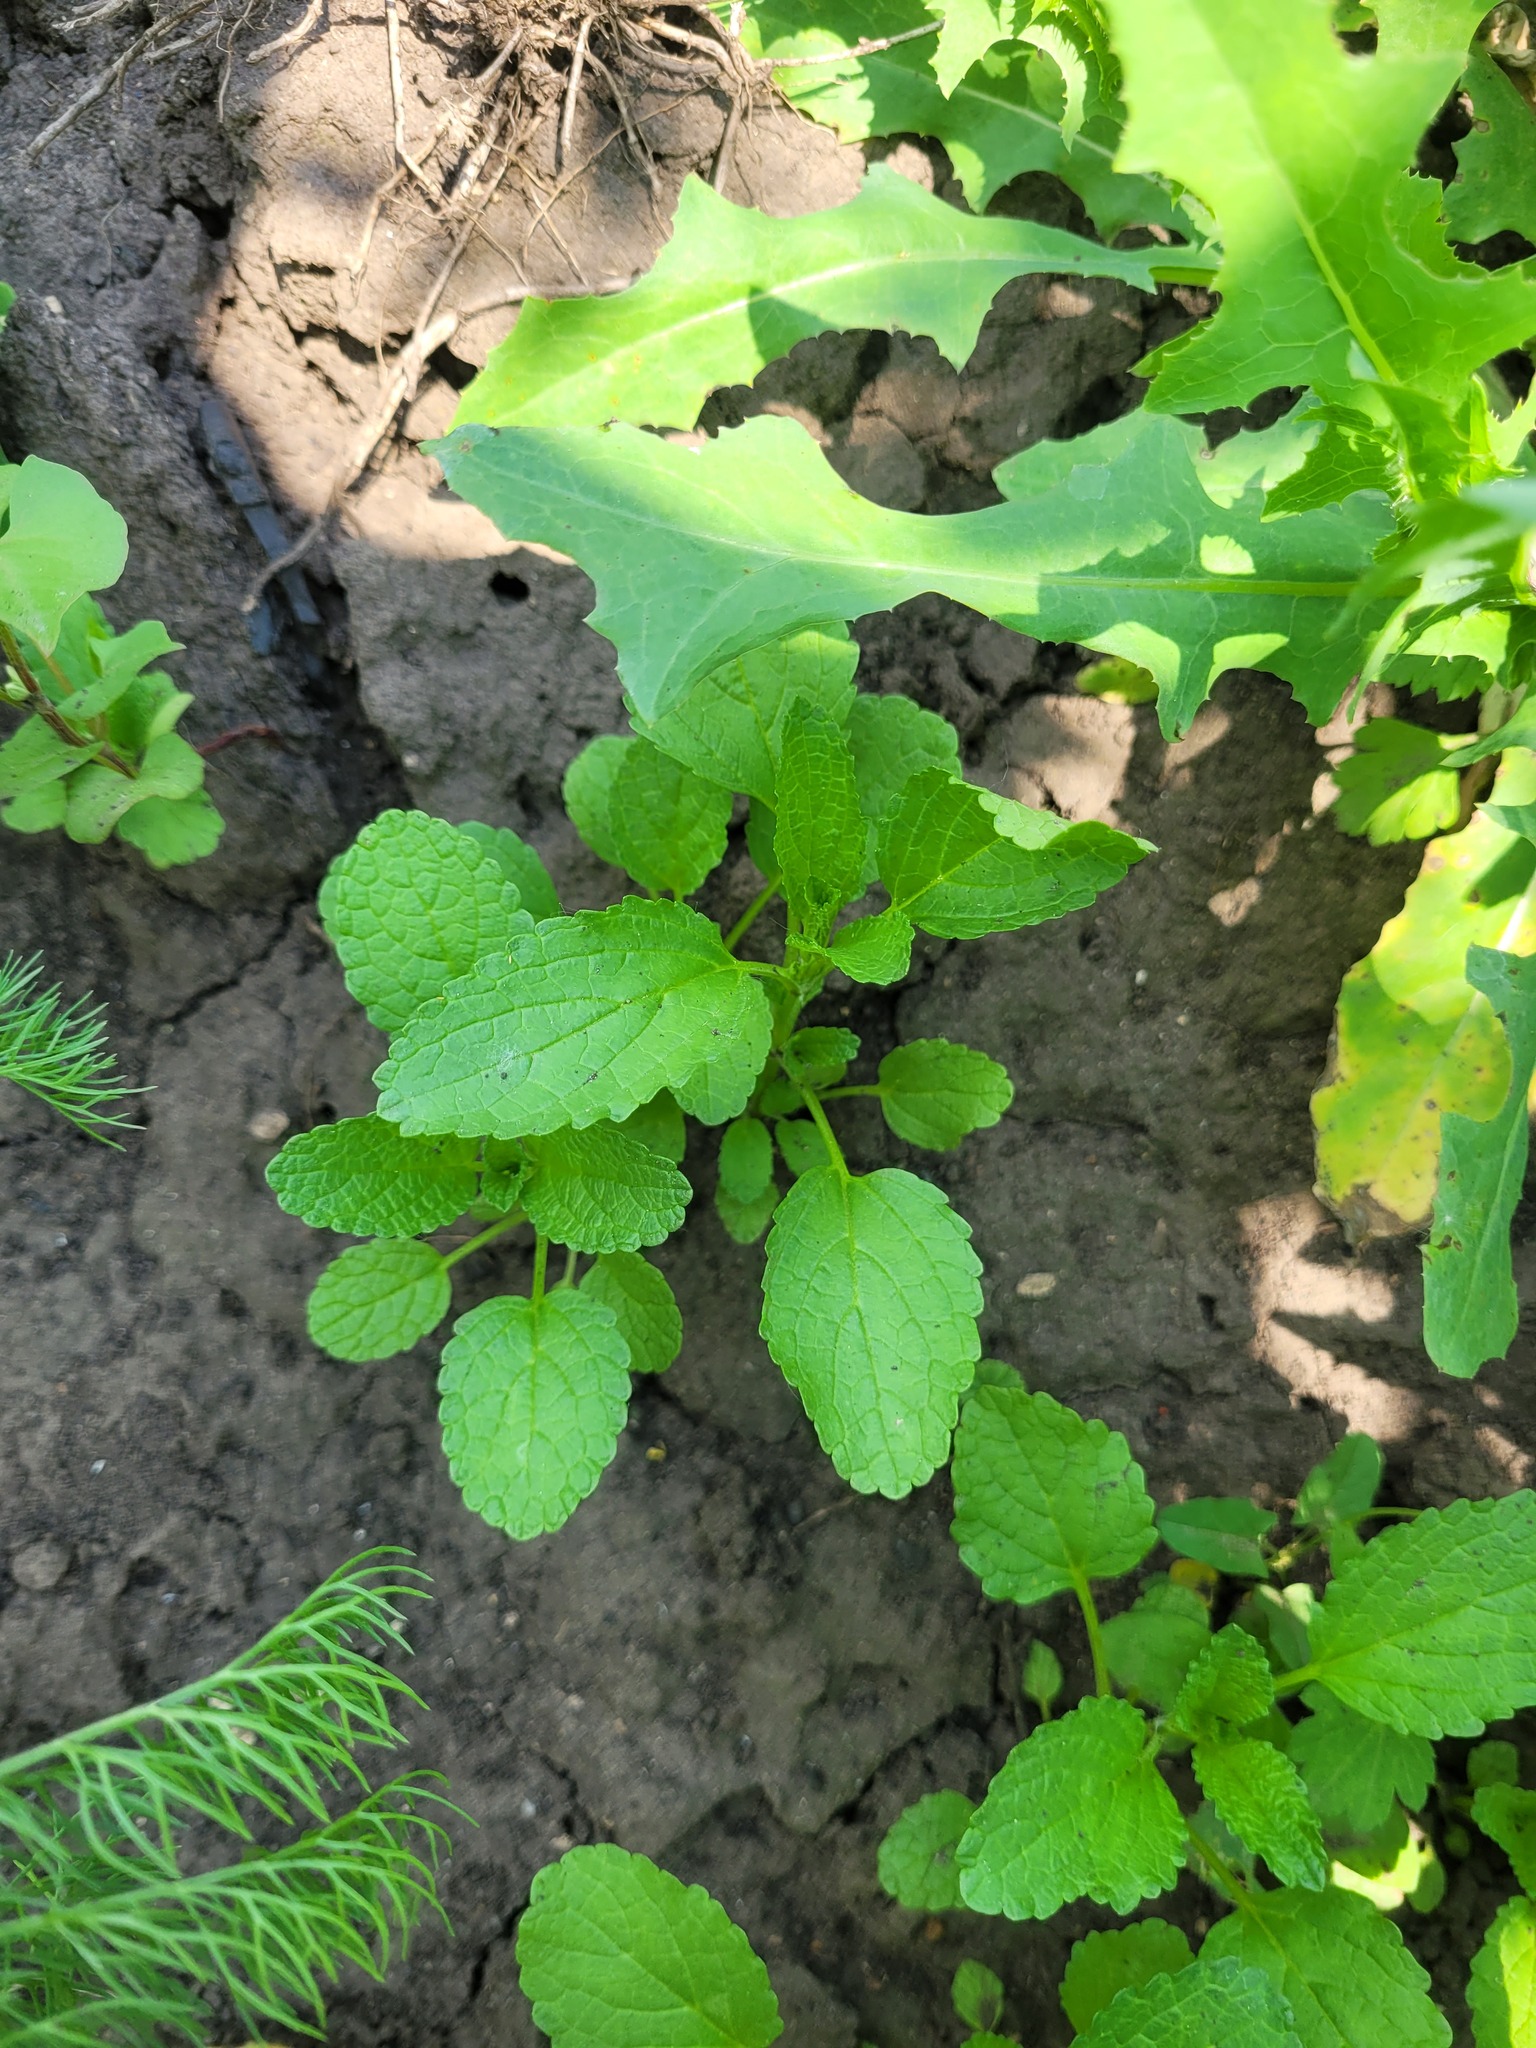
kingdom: Plantae
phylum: Tracheophyta
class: Magnoliopsida
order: Lamiales
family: Lamiaceae
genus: Stachys
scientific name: Stachys annua
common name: Annual yellow-woundwort
